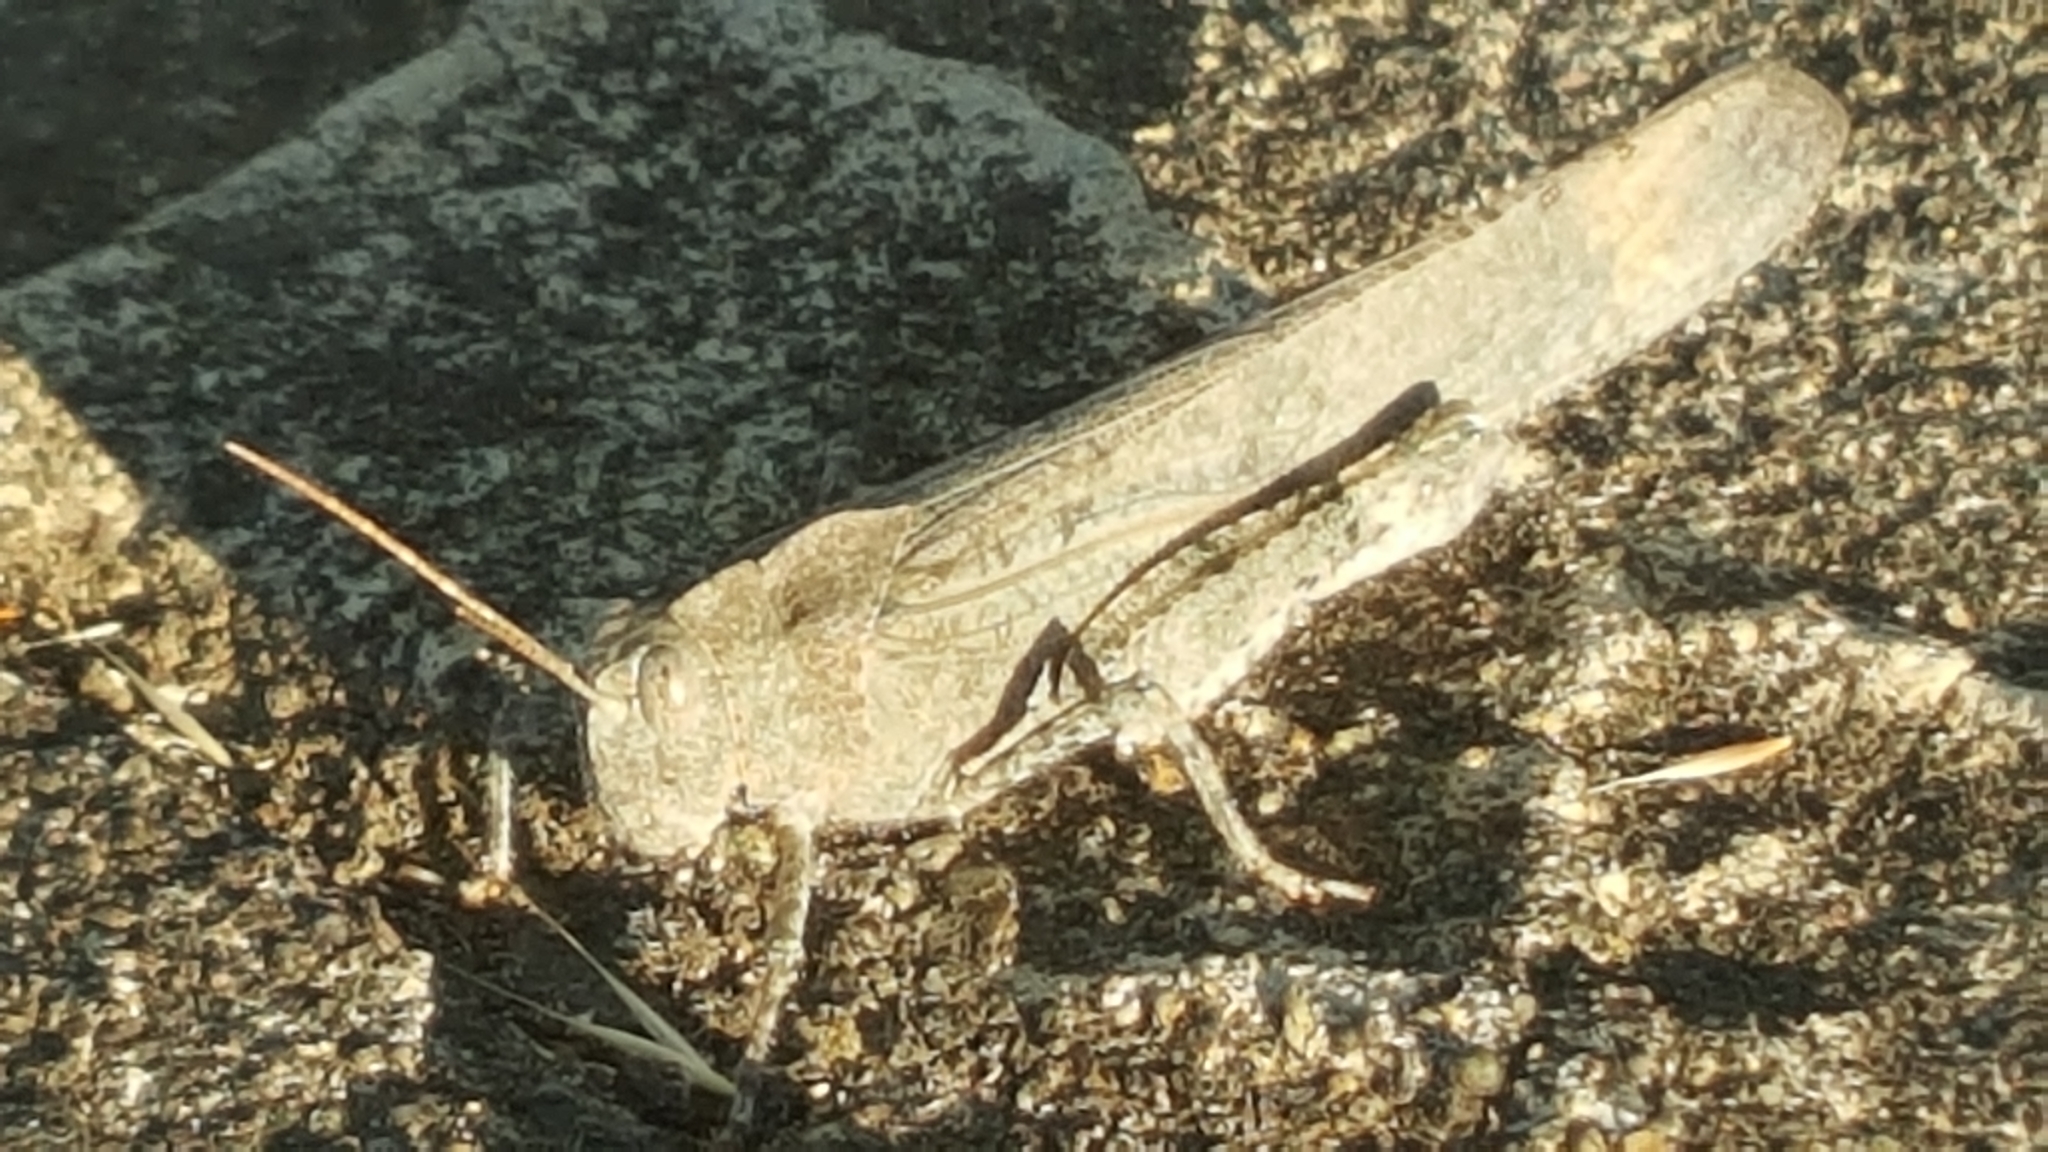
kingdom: Animalia
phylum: Arthropoda
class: Insecta
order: Orthoptera
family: Acrididae
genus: Dissosteira
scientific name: Dissosteira carolina
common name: Carolina grasshopper
